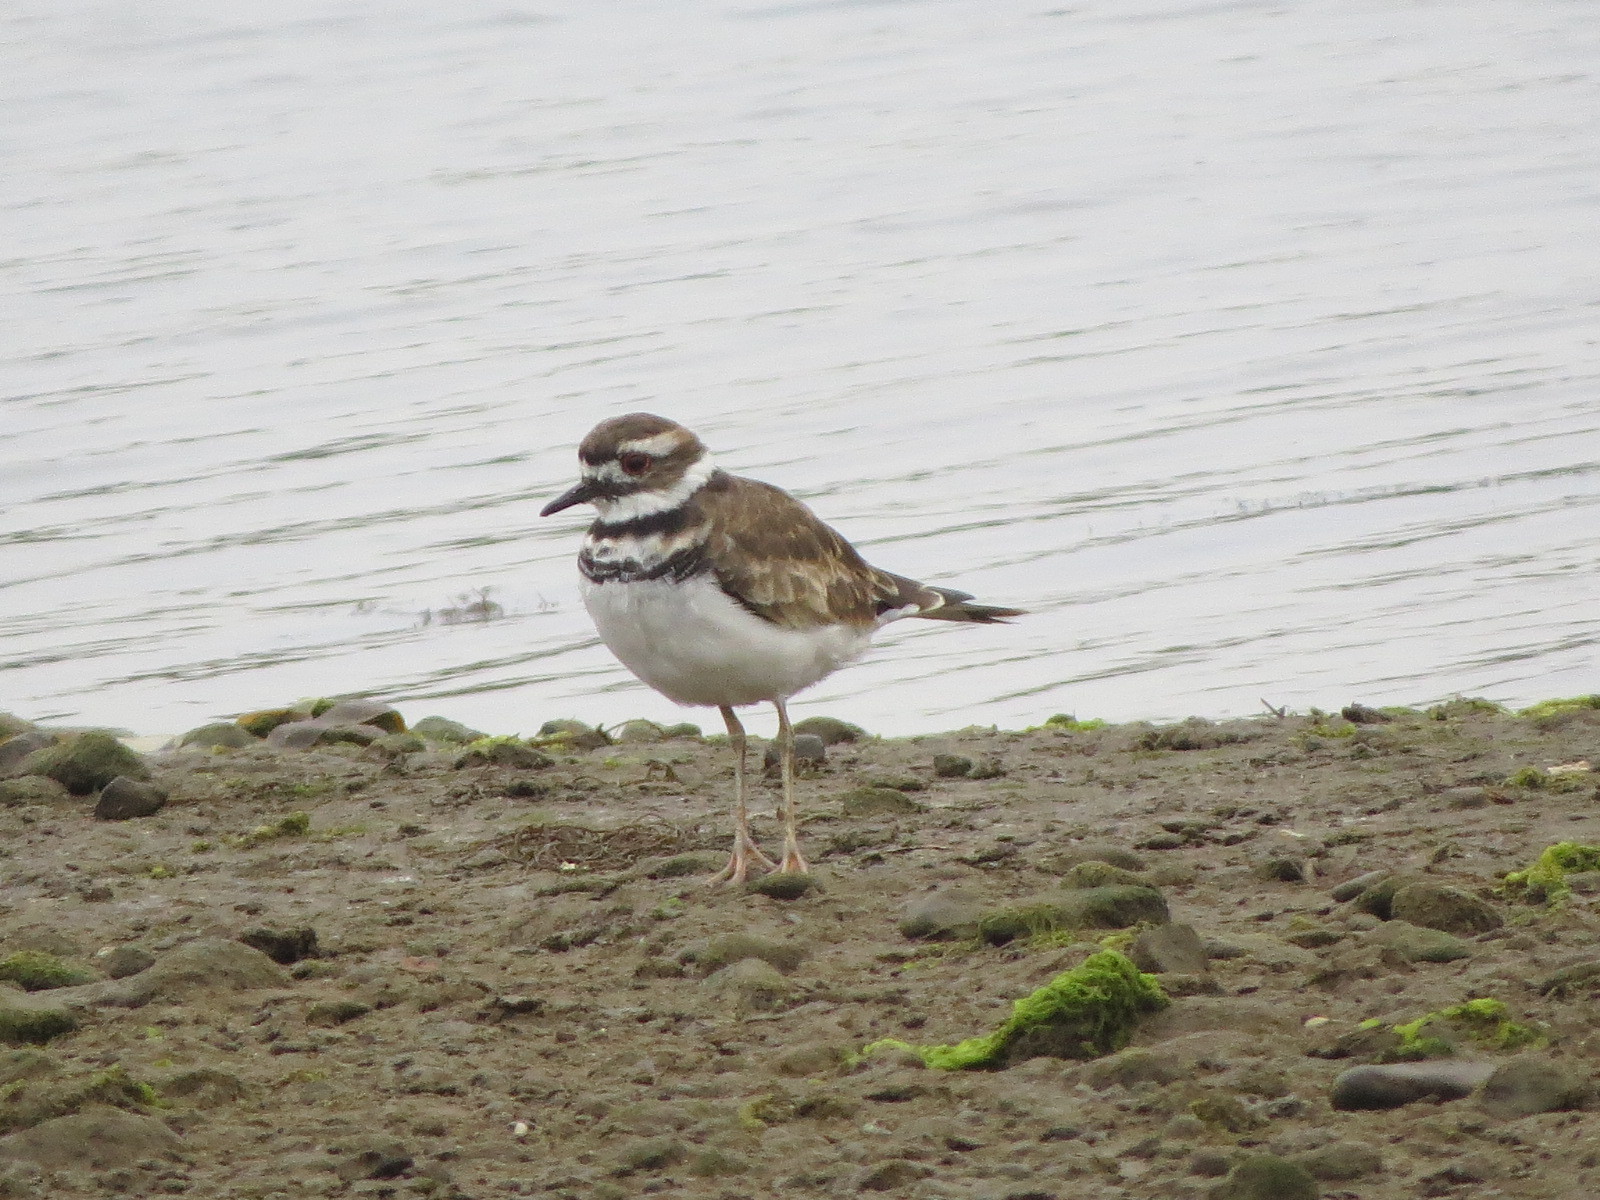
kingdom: Animalia
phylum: Chordata
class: Aves
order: Charadriiformes
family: Charadriidae
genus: Charadrius
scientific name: Charadrius vociferus
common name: Killdeer
